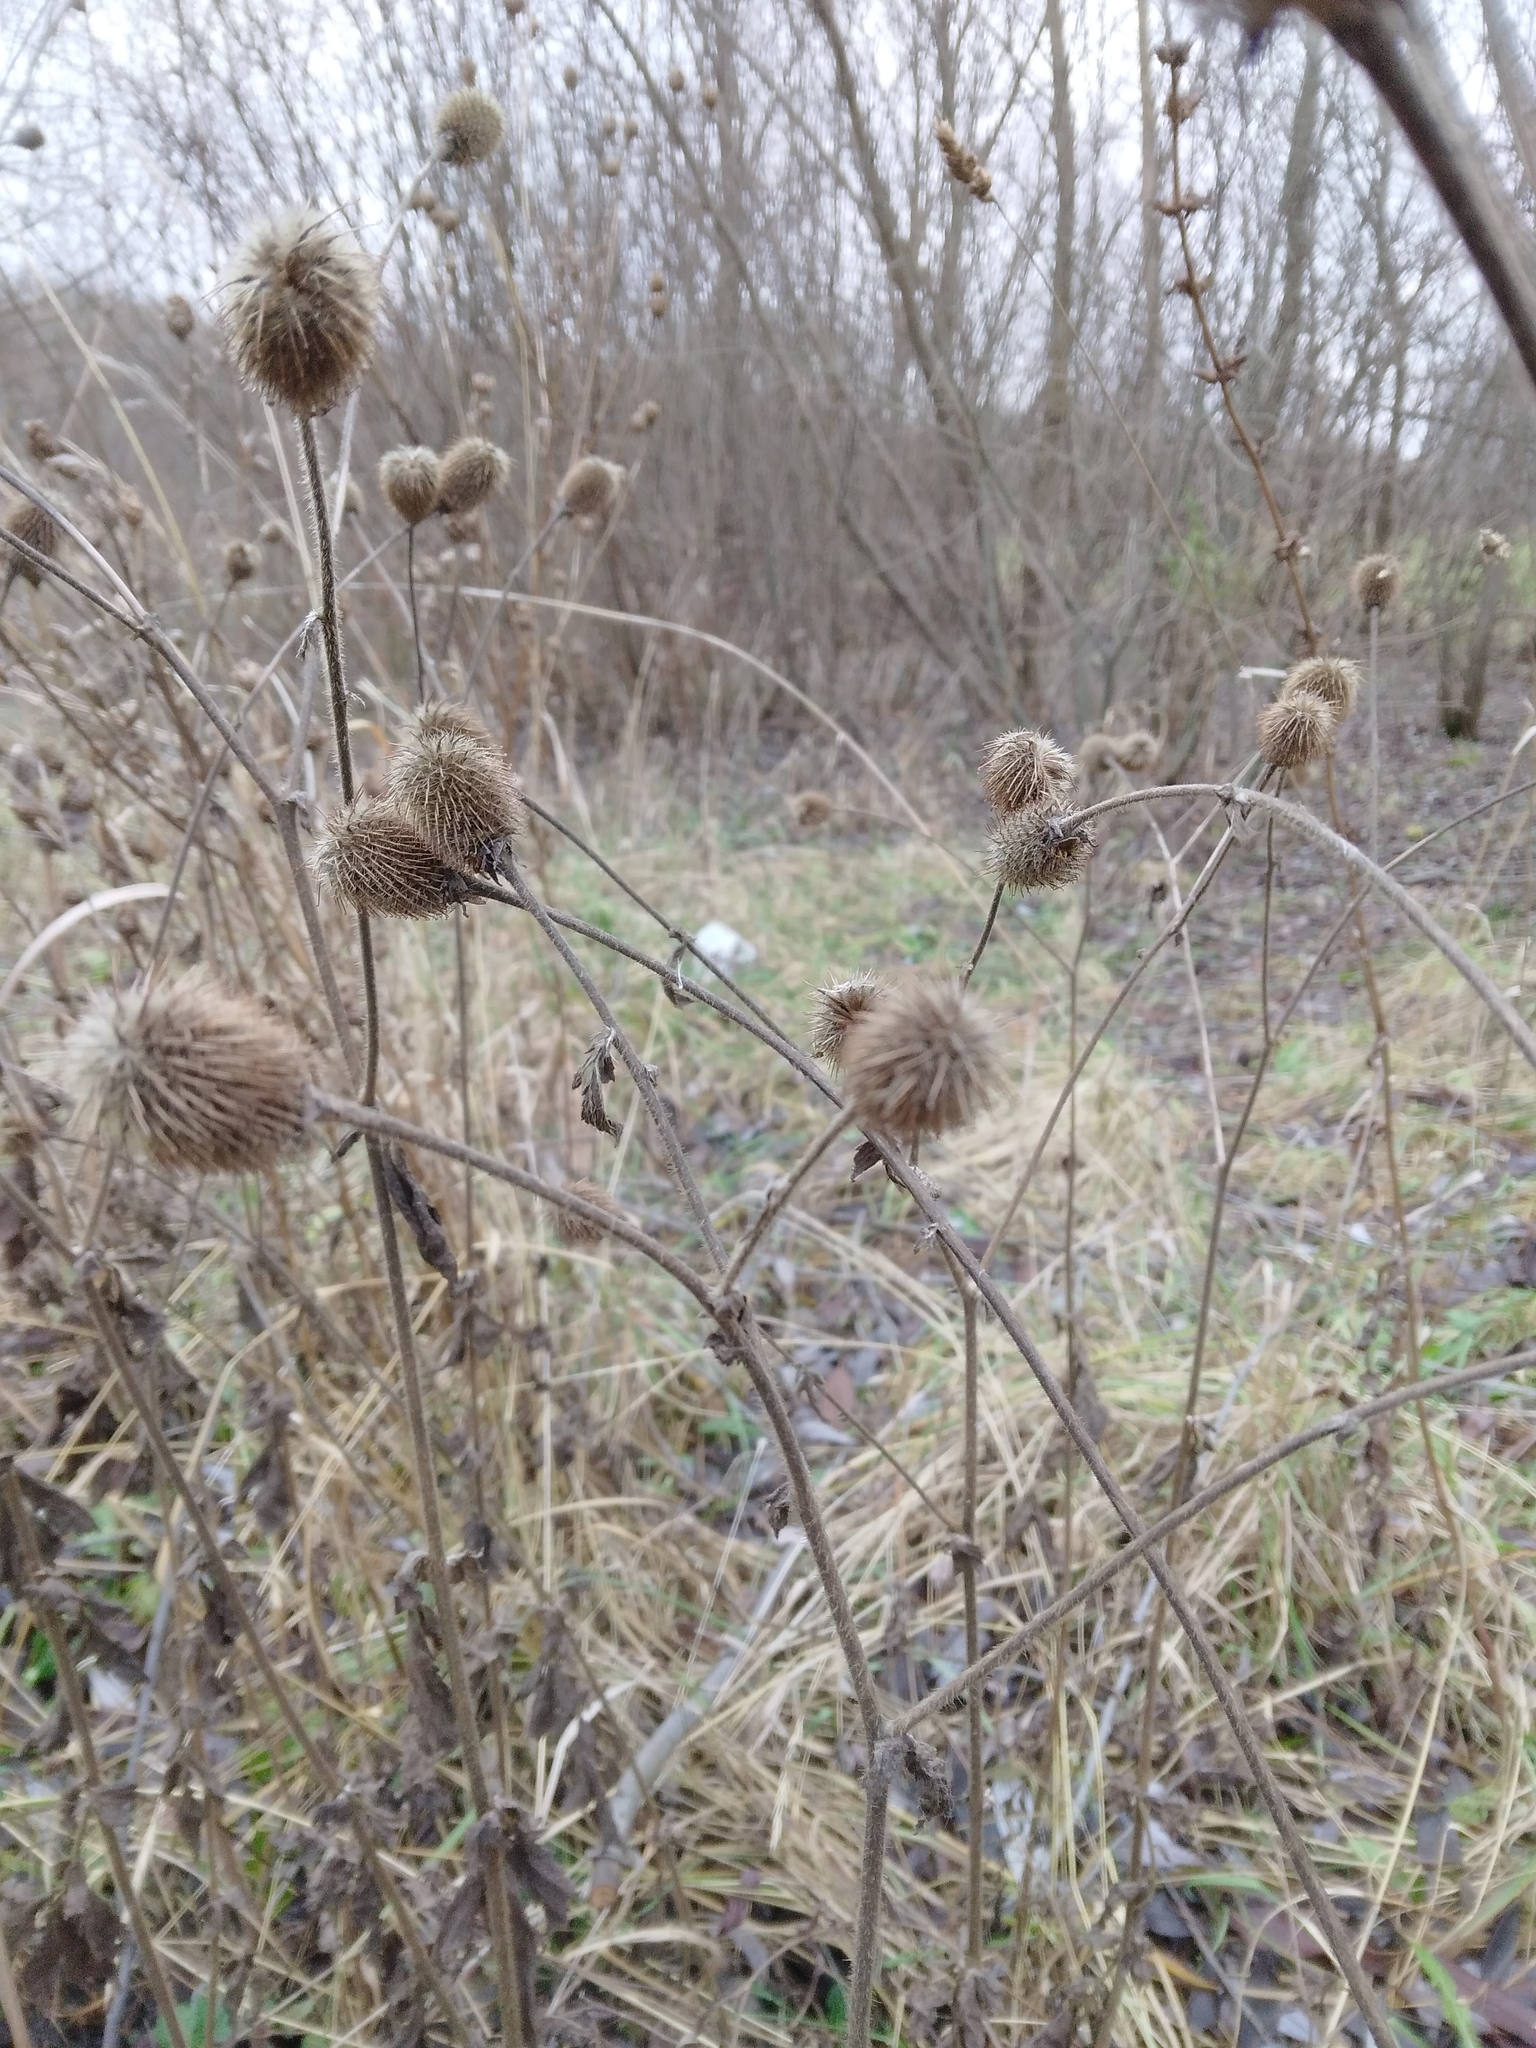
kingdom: Plantae
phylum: Tracheophyta
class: Magnoliopsida
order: Rosales
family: Rosaceae
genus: Geum
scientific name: Geum aleppicum
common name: Yellow avens
